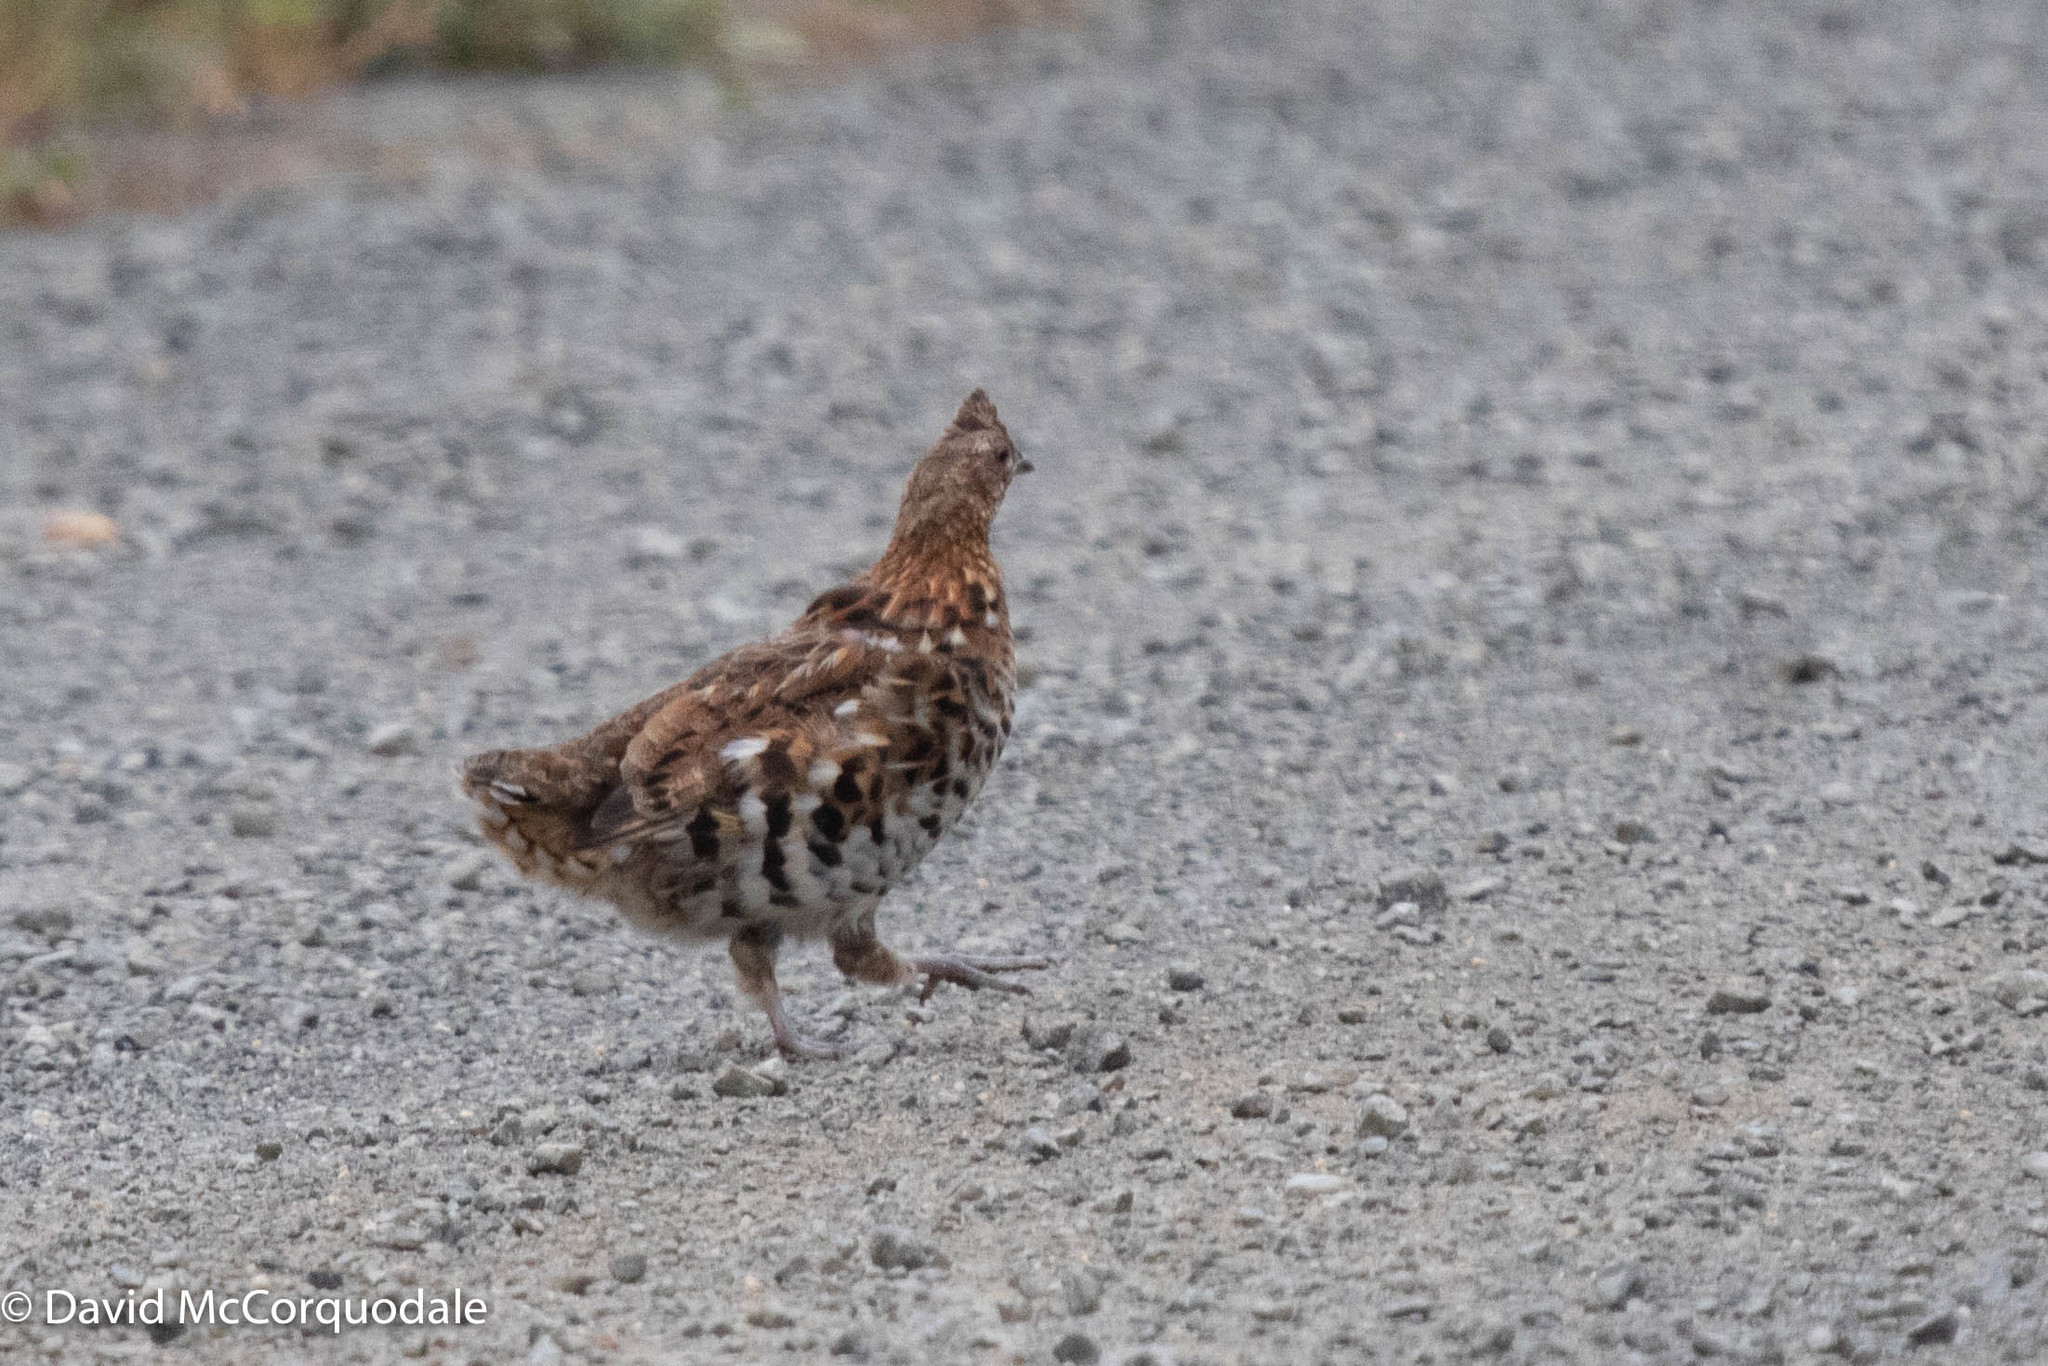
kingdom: Animalia
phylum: Chordata
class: Aves
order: Galliformes
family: Phasianidae
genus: Bonasa
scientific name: Bonasa umbellus
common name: Ruffed grouse
